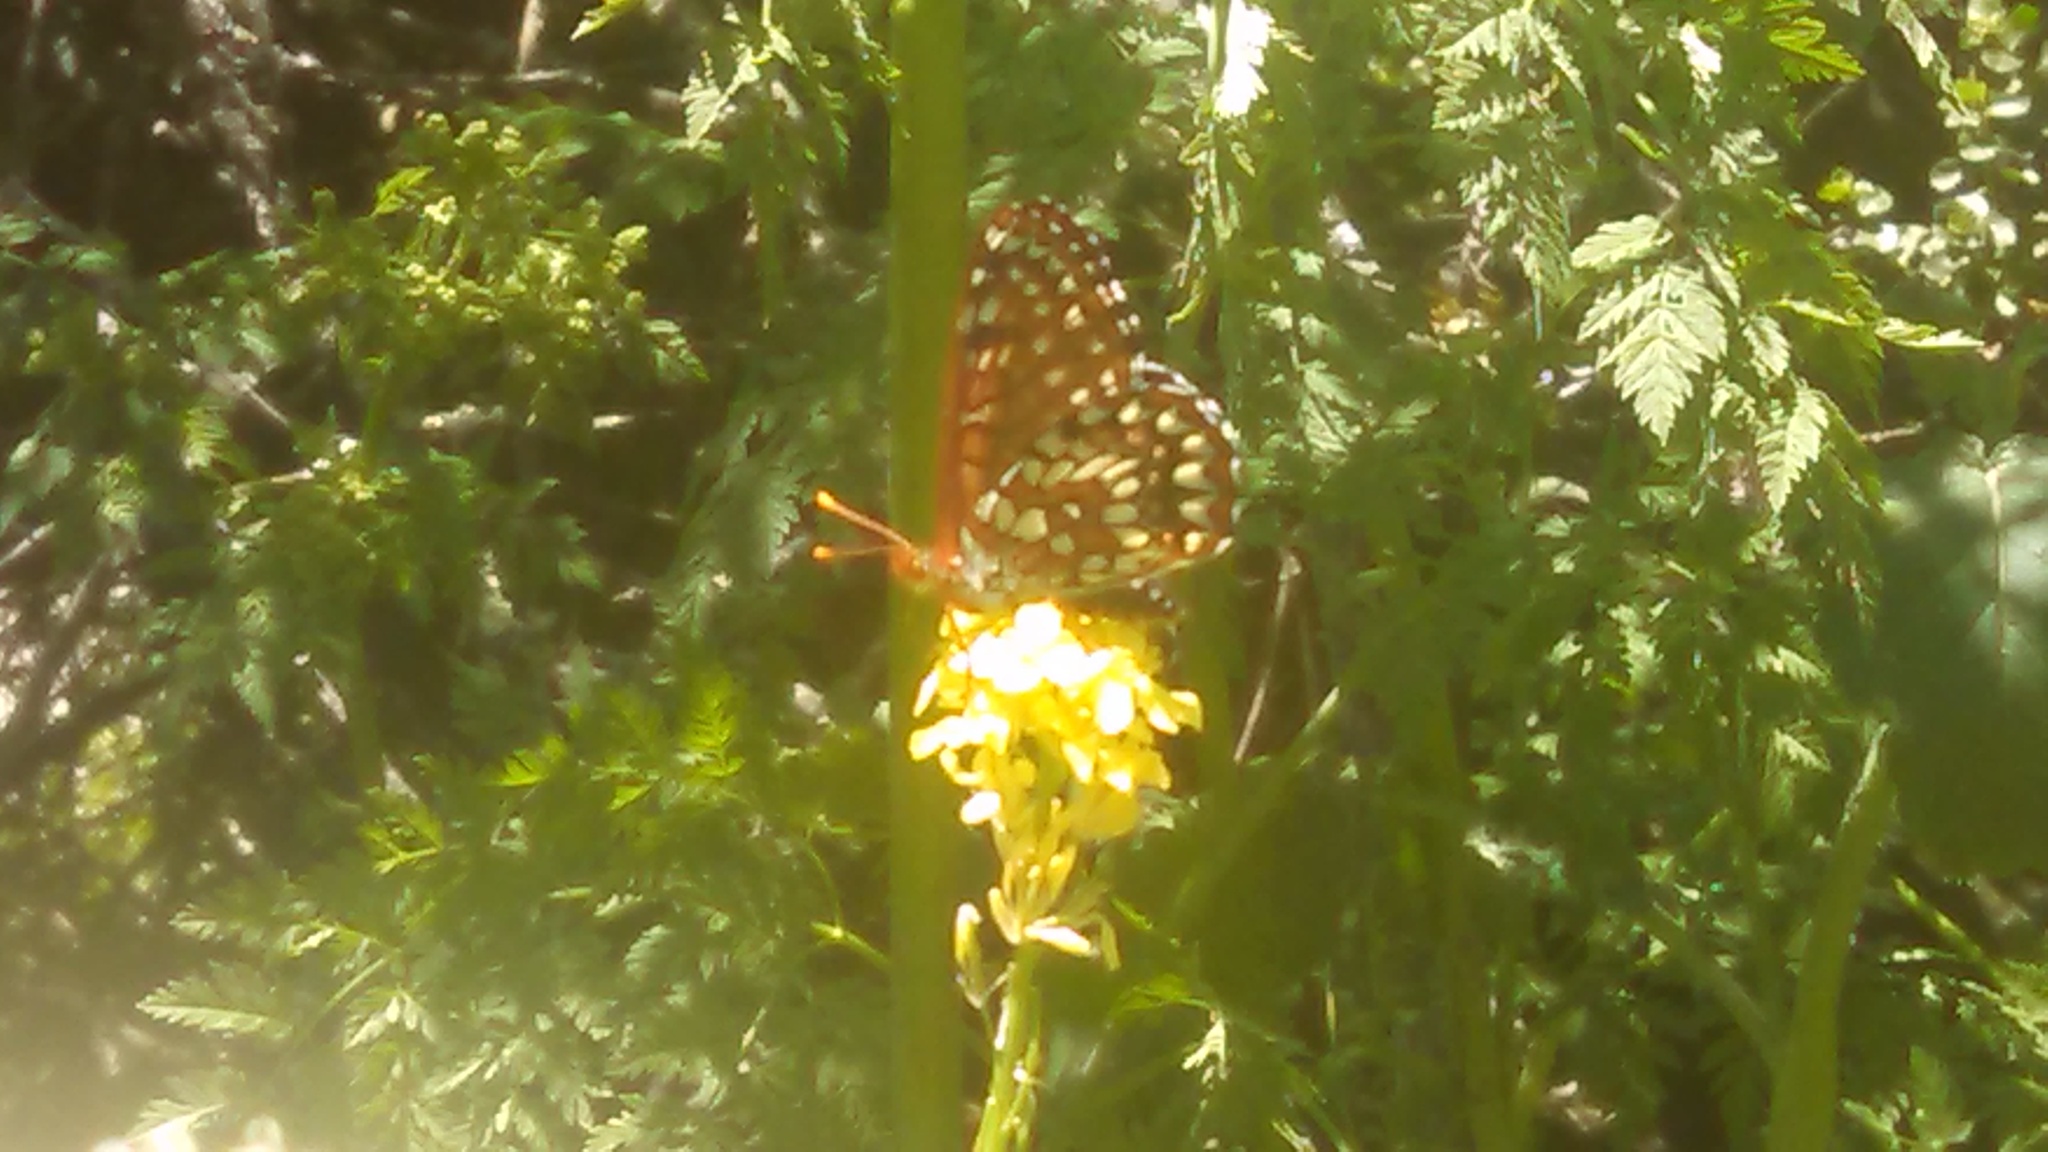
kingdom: Animalia
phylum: Arthropoda
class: Insecta
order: Lepidoptera
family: Nymphalidae
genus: Occidryas
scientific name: Occidryas chalcedona
